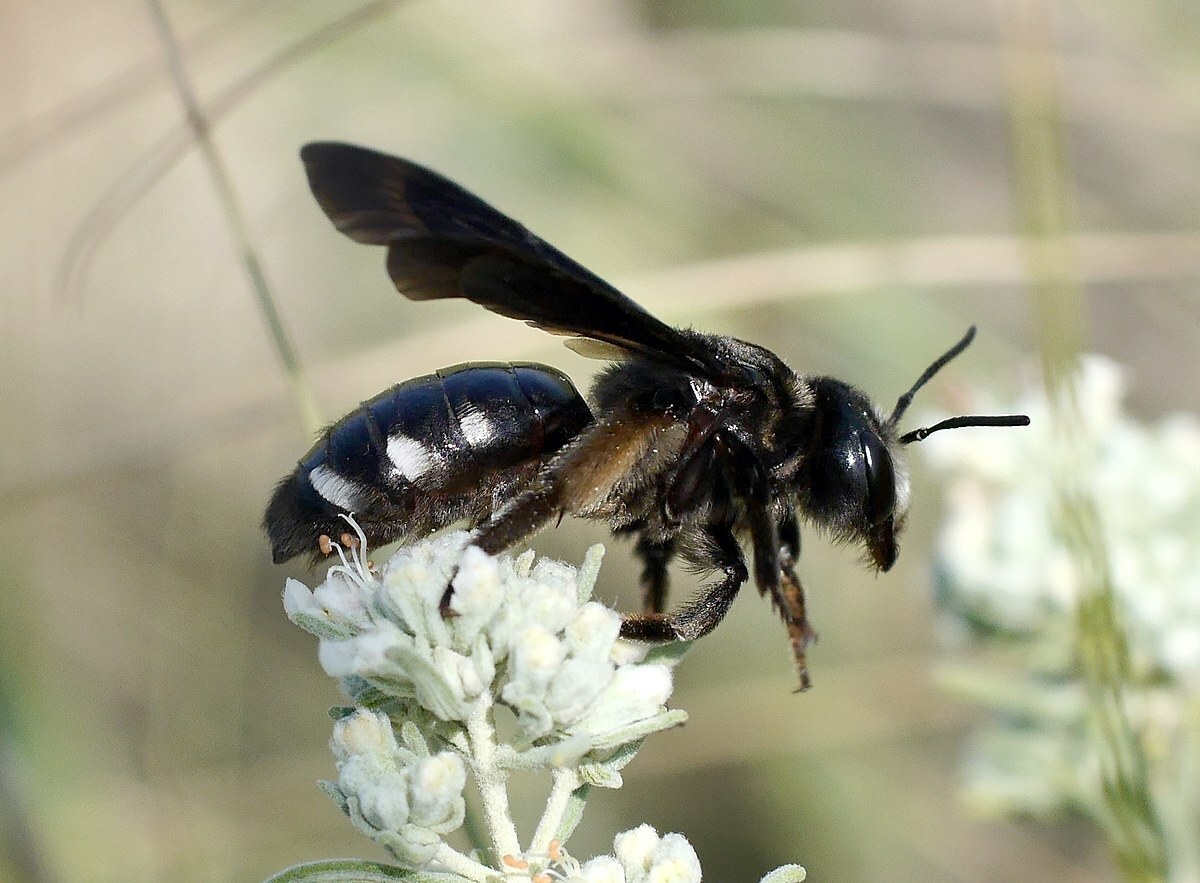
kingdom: Animalia
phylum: Arthropoda
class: Insecta
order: Hymenoptera
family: Andrenidae
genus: Andrena
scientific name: Andrena albopunctata
